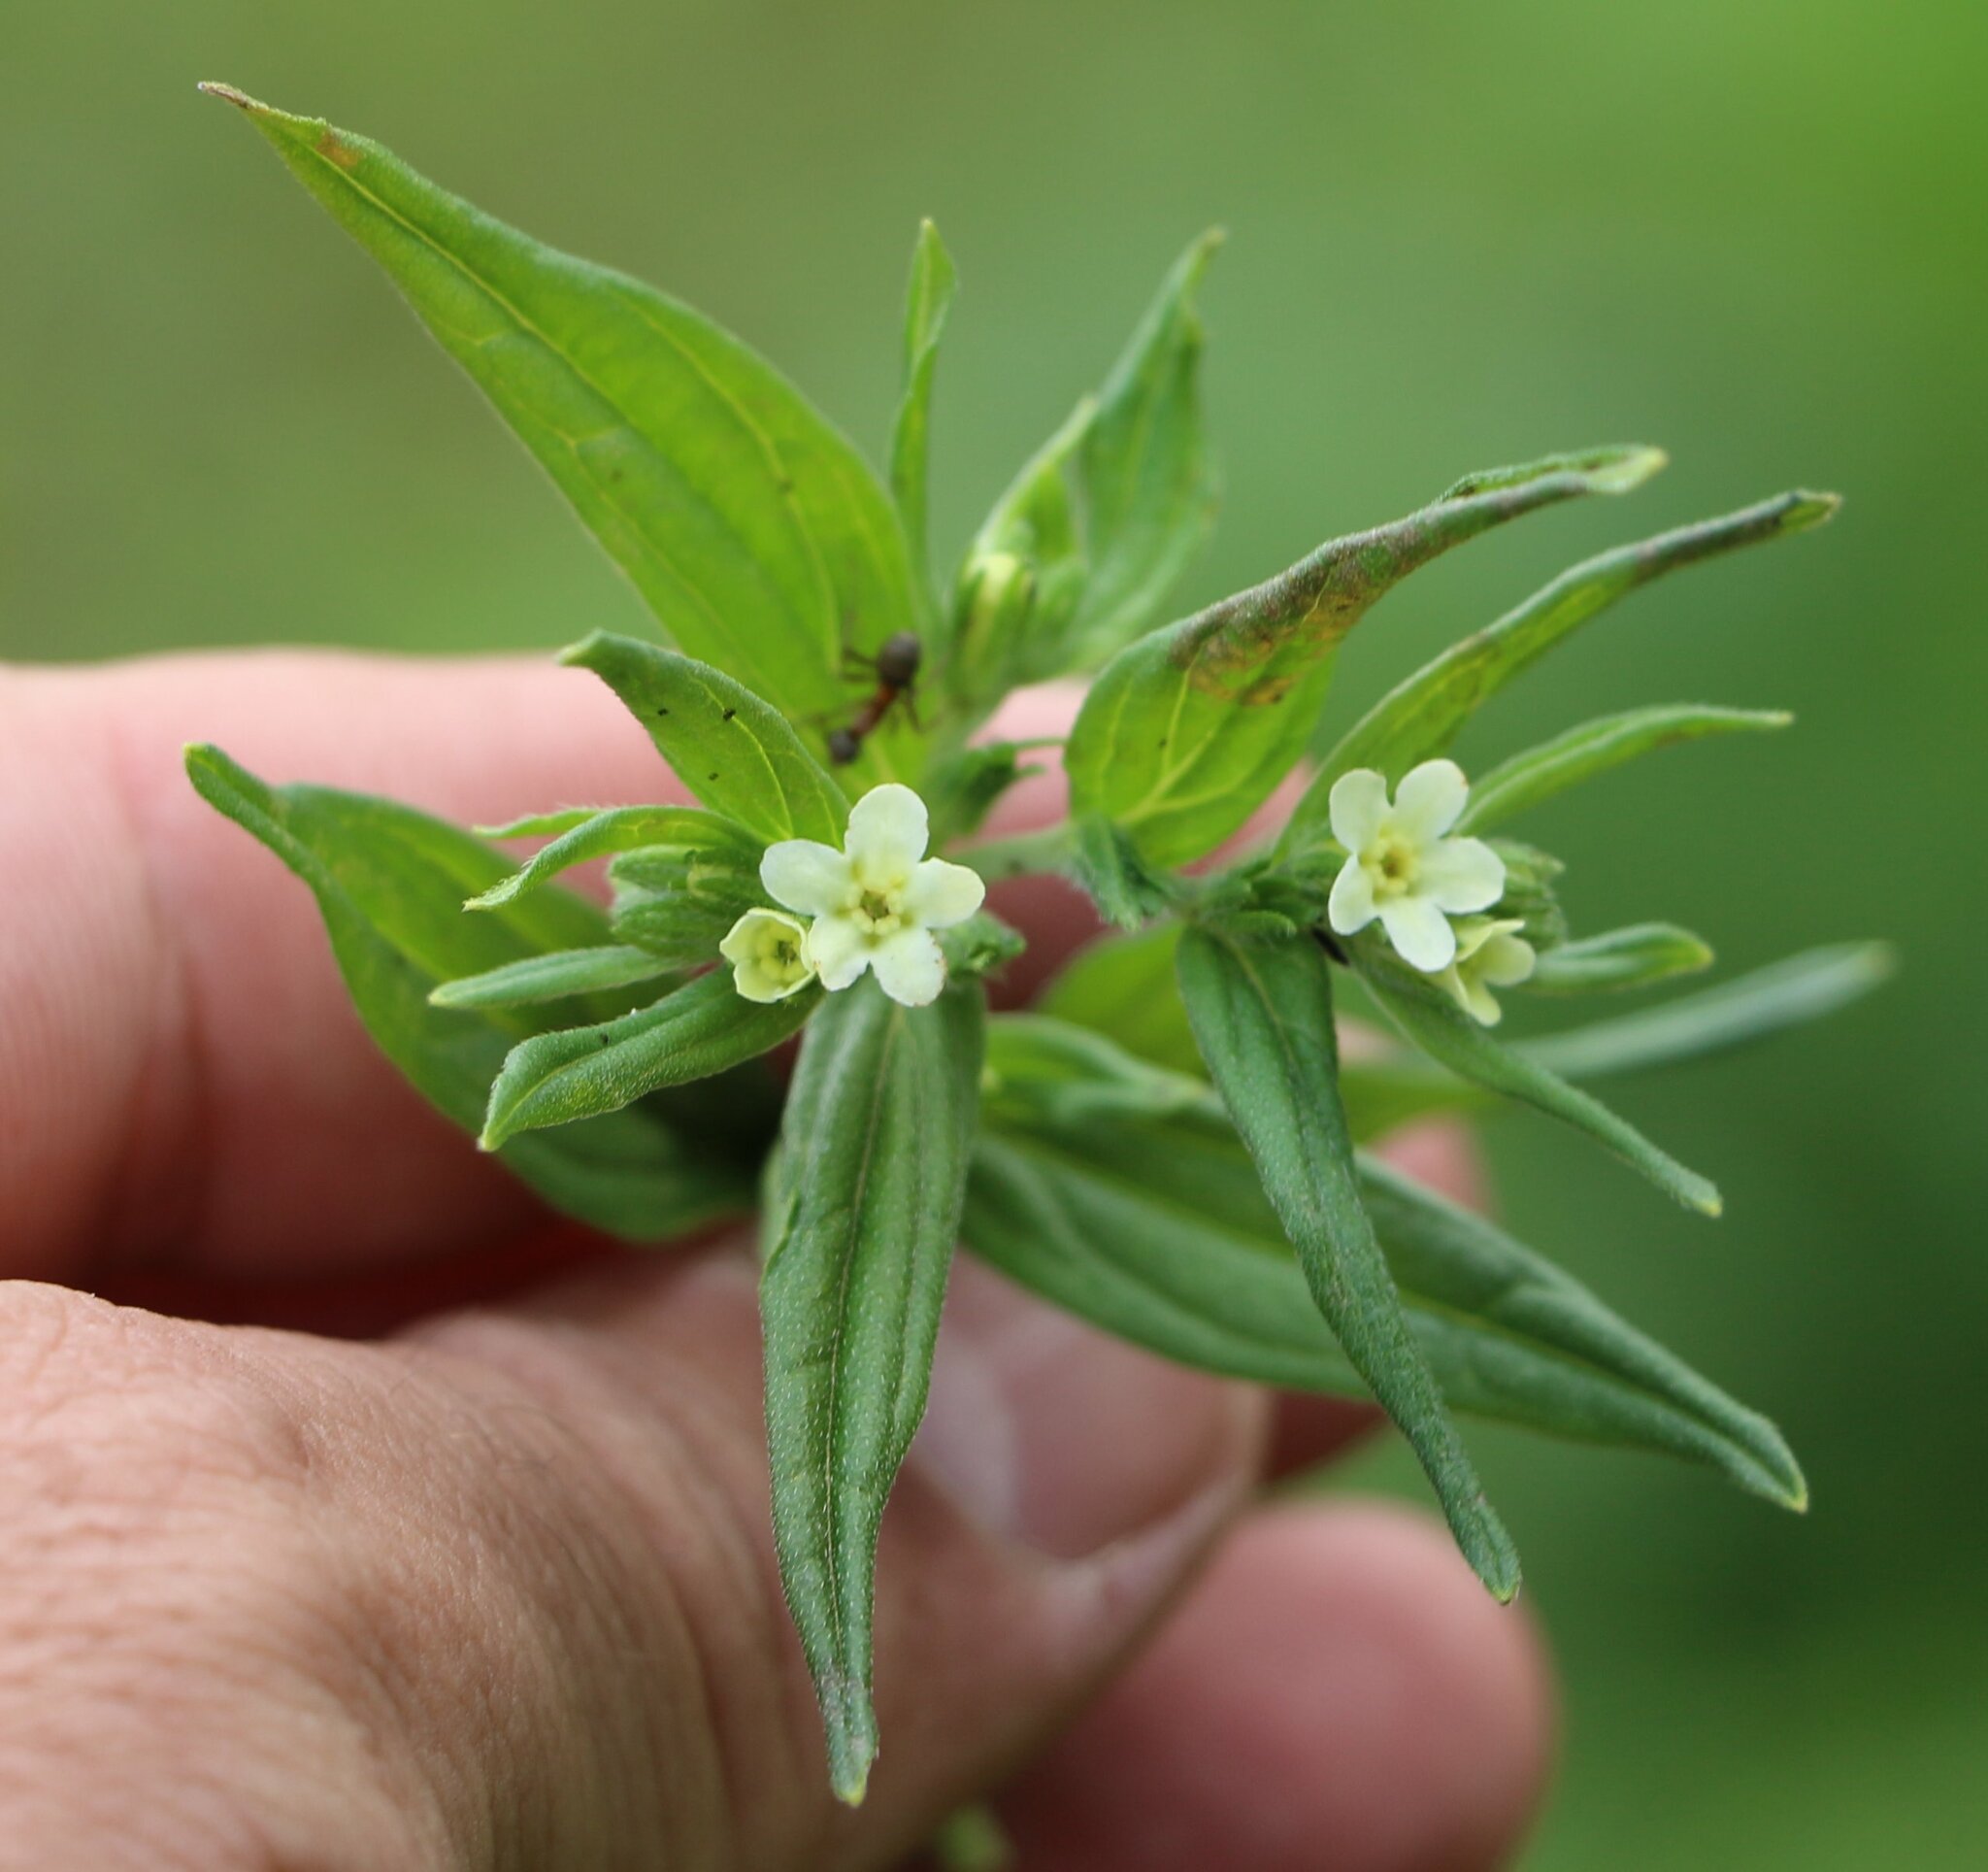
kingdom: Plantae
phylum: Tracheophyta
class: Magnoliopsida
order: Boraginales
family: Boraginaceae
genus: Lithospermum
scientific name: Lithospermum officinale
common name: Common gromwell
